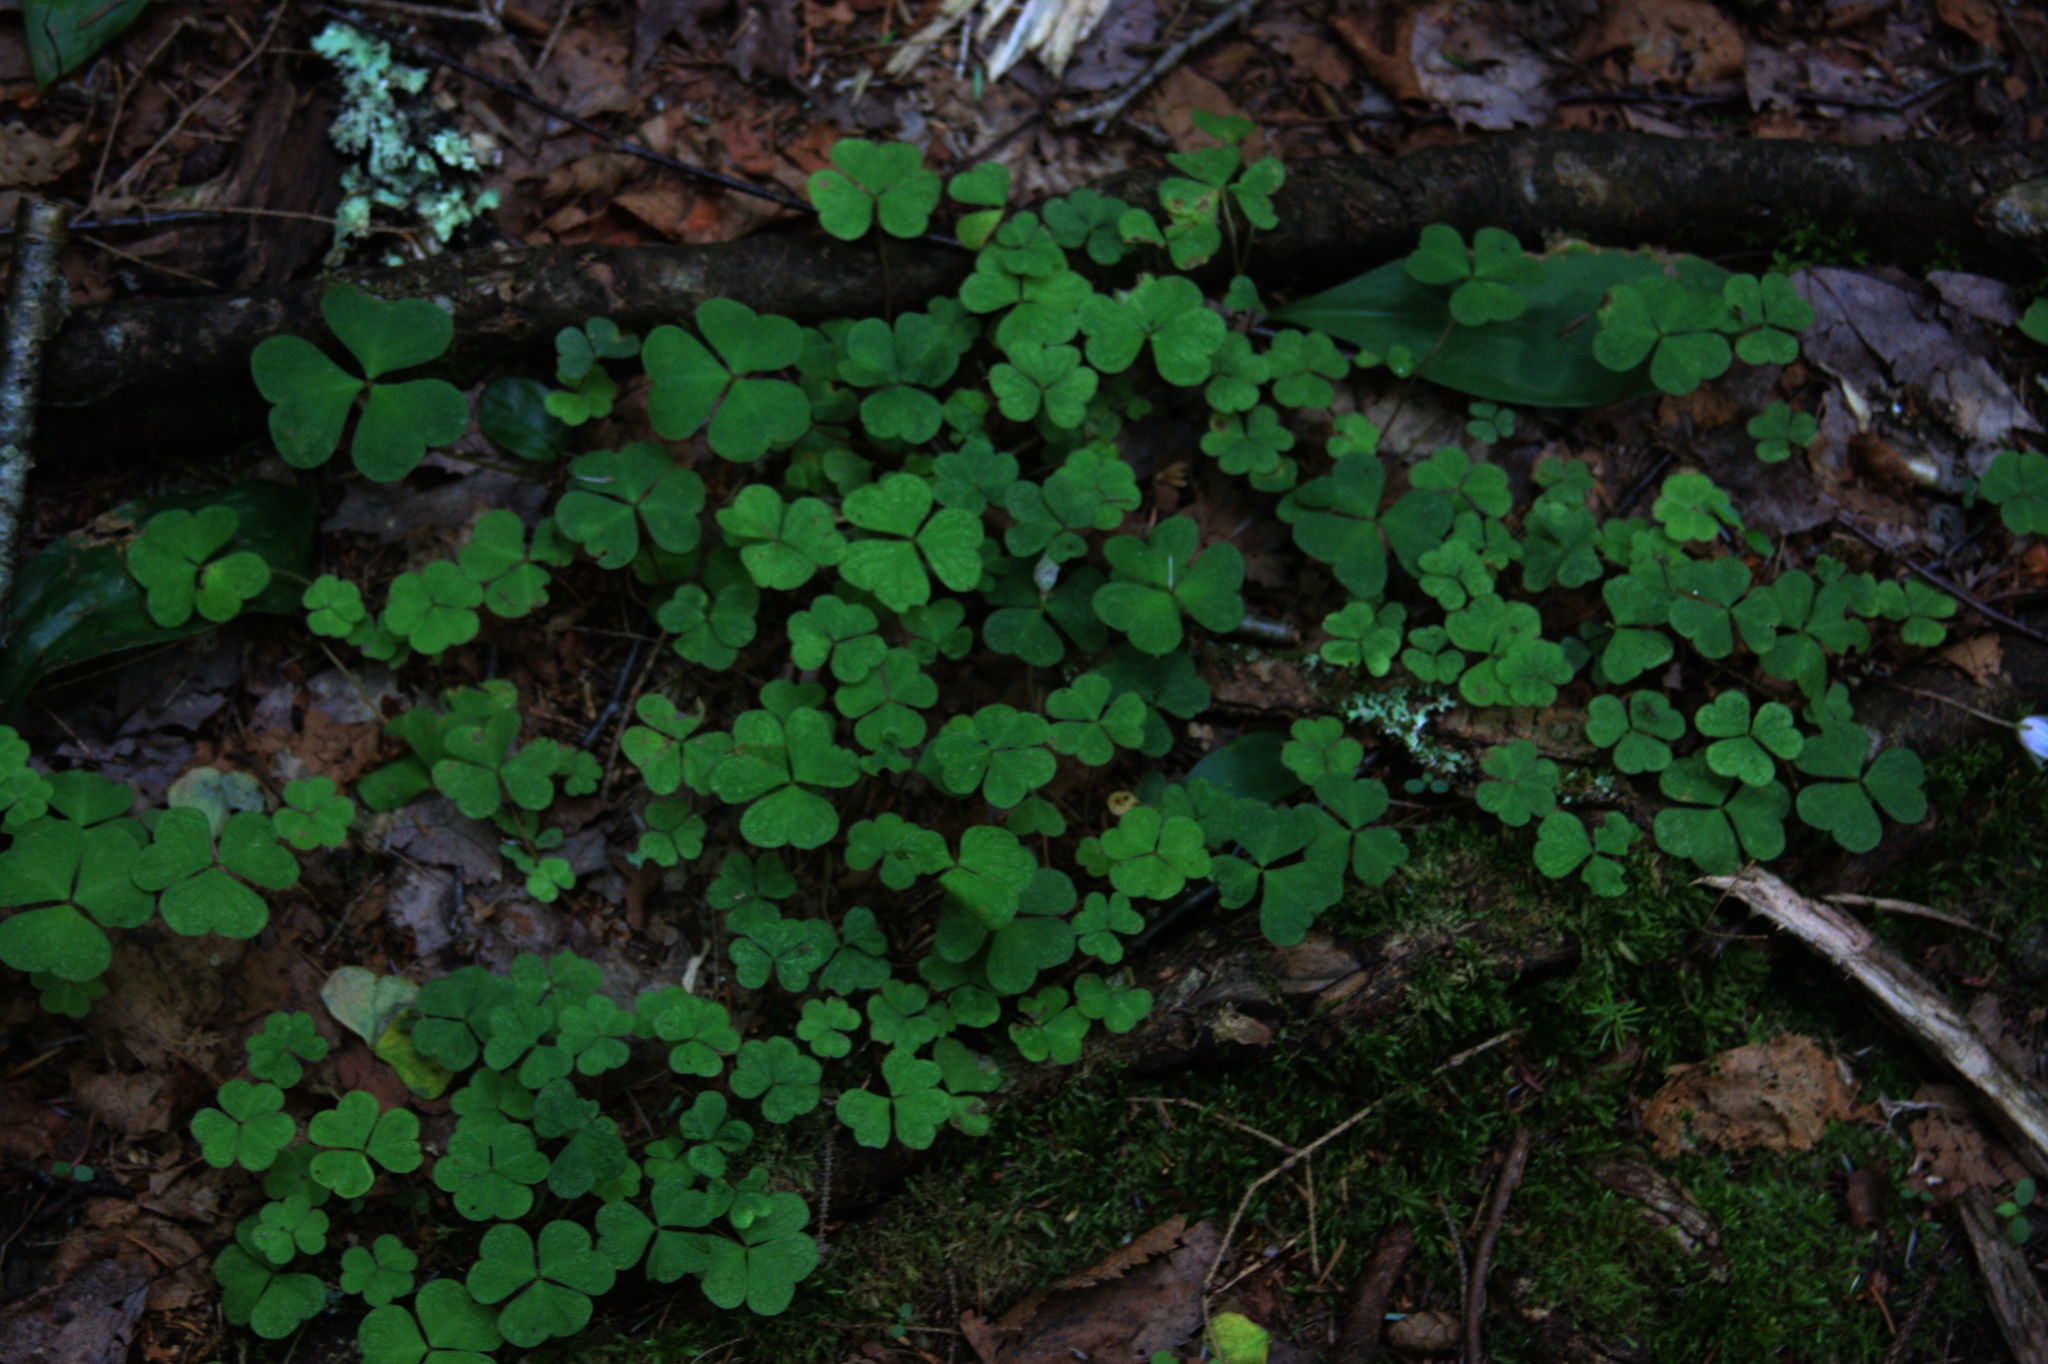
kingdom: Plantae
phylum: Tracheophyta
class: Magnoliopsida
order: Oxalidales
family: Oxalidaceae
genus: Oxalis
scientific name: Oxalis montana
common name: American wood-sorrel
